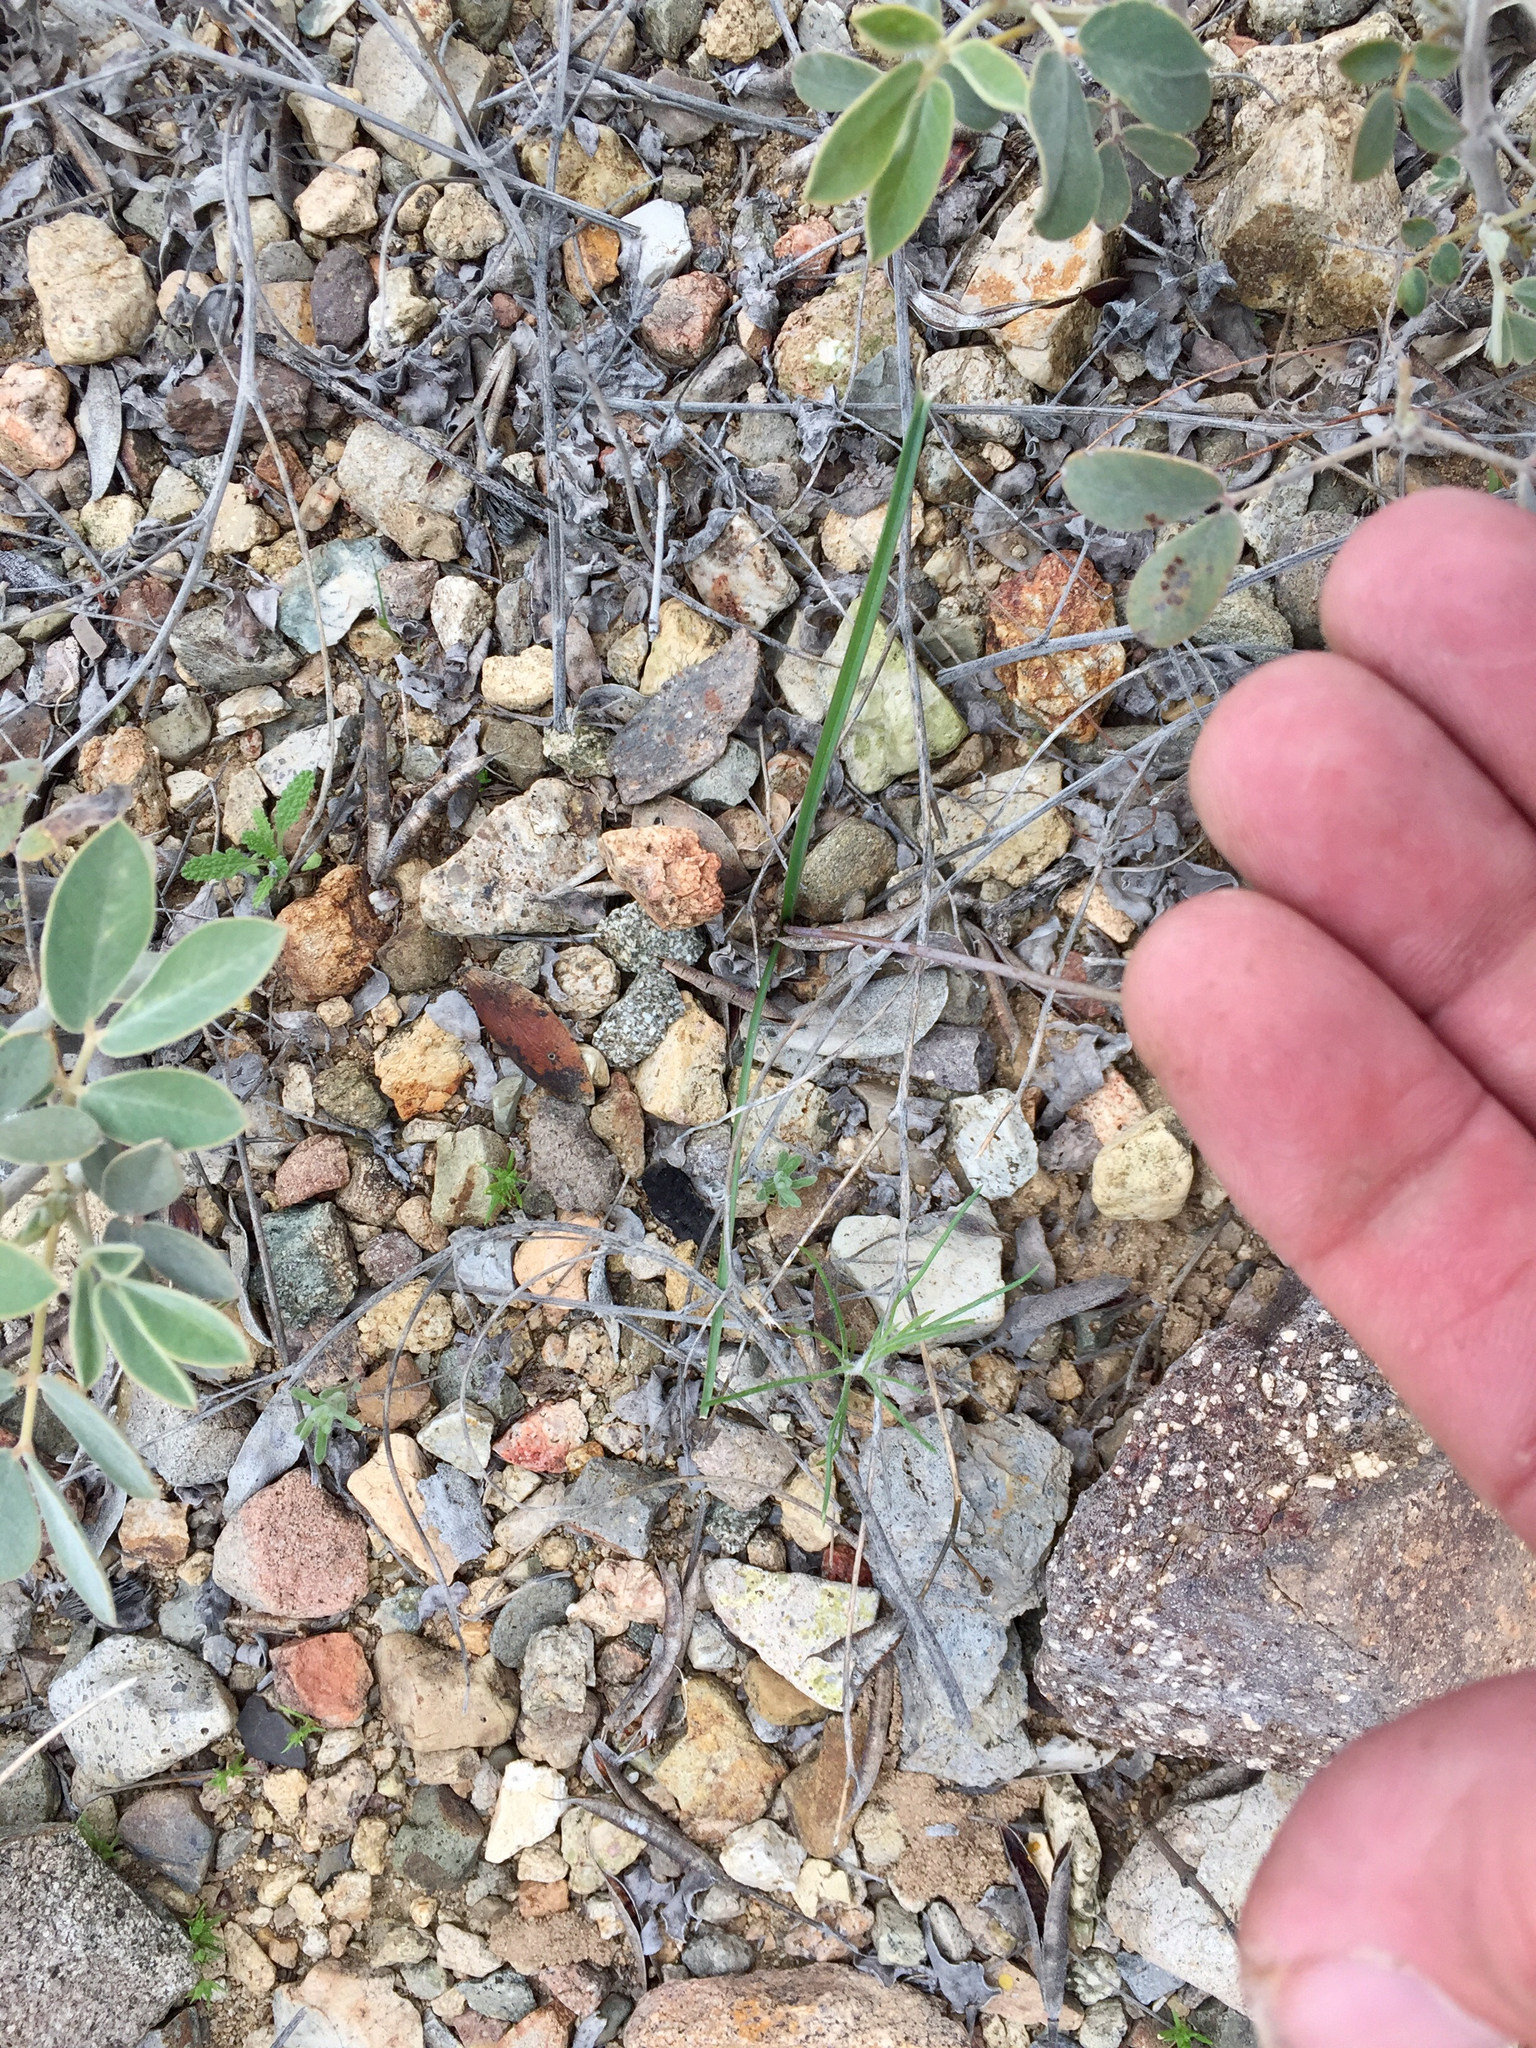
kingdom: Plantae
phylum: Tracheophyta
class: Liliopsida
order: Asparagales
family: Asparagaceae
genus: Dipterostemon
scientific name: Dipterostemon capitatus
